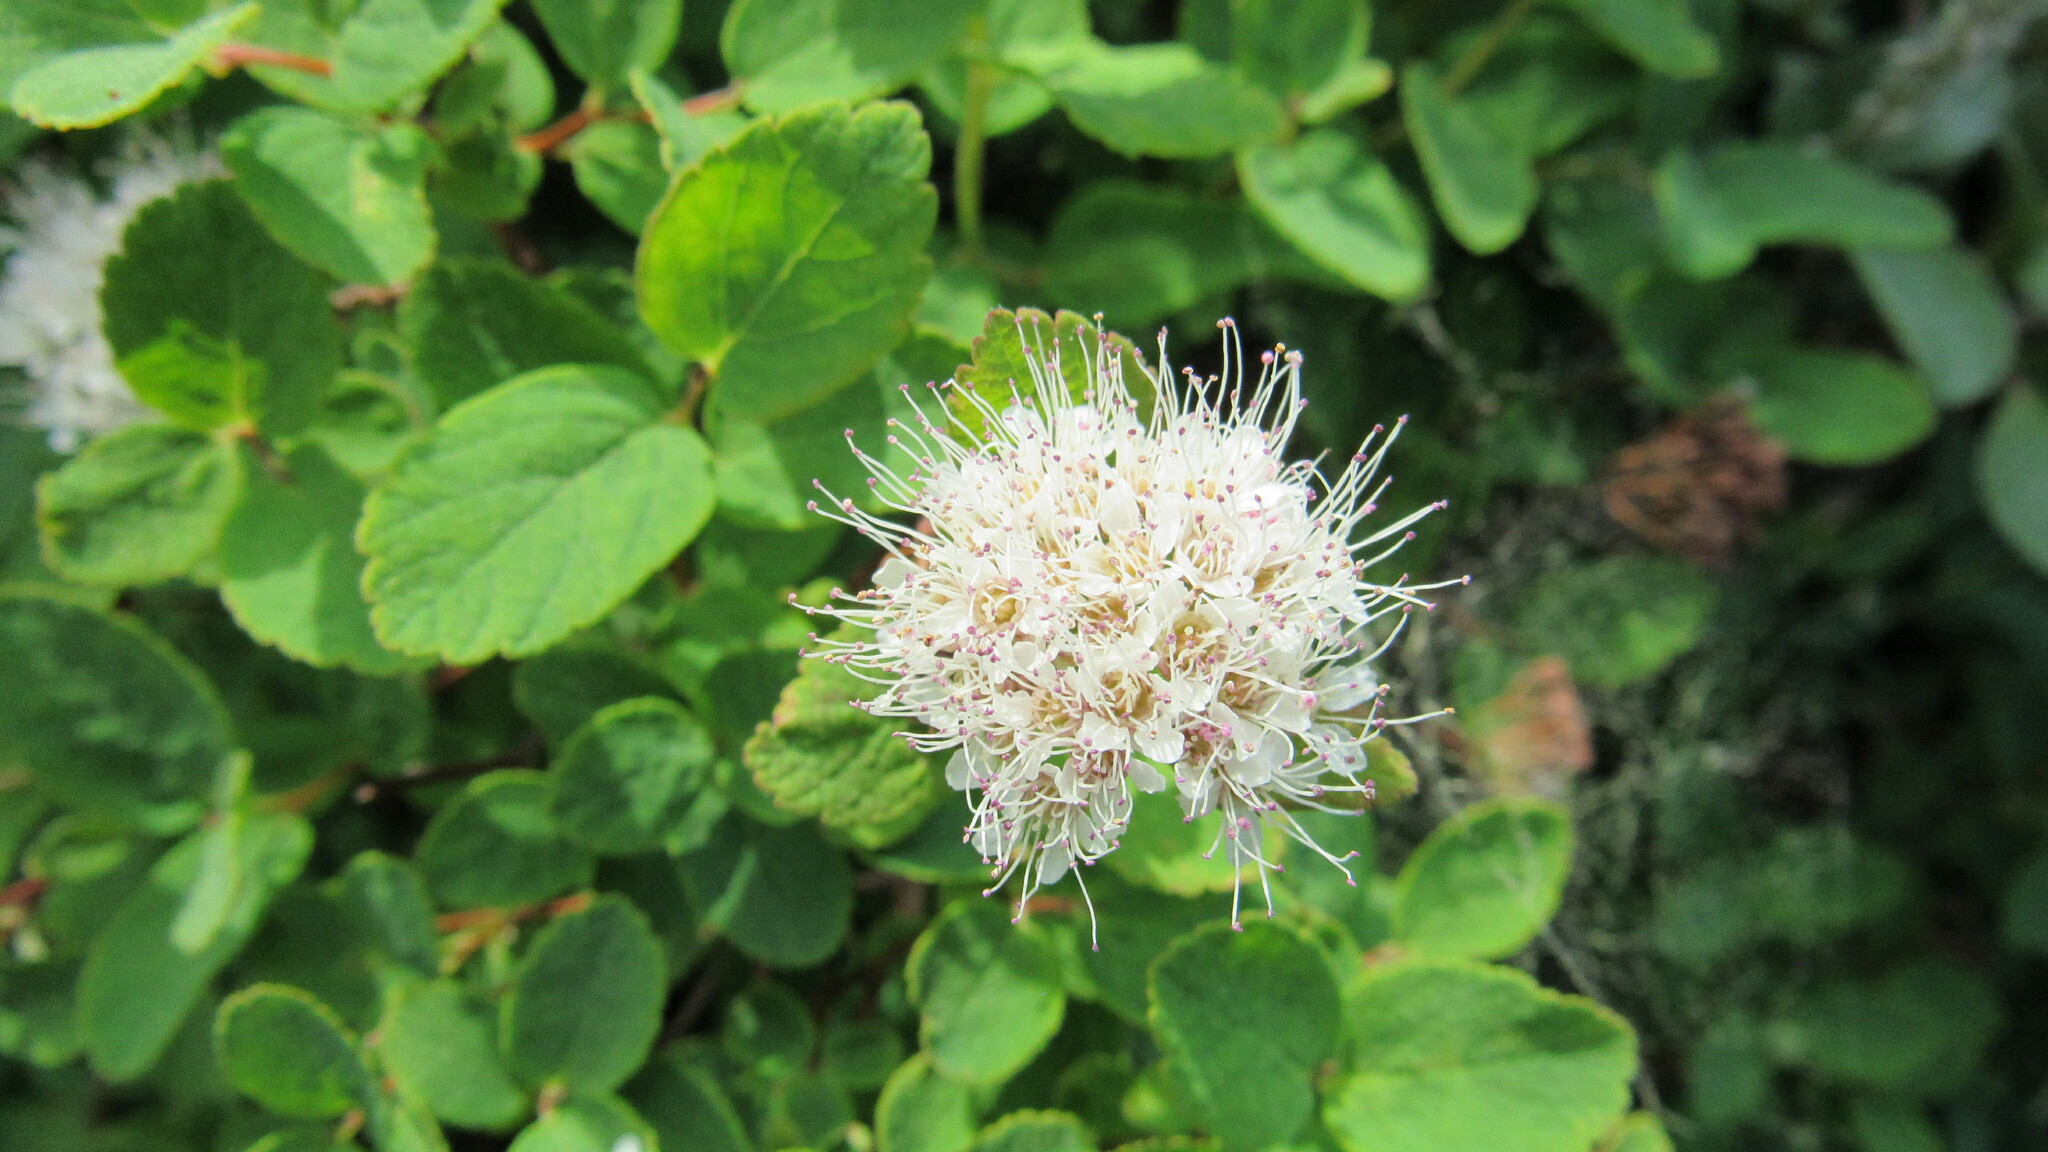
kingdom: Plantae
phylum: Tracheophyta
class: Magnoliopsida
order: Rosales
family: Rosaceae
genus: Spiraea
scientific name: Spiraea betulifolia
